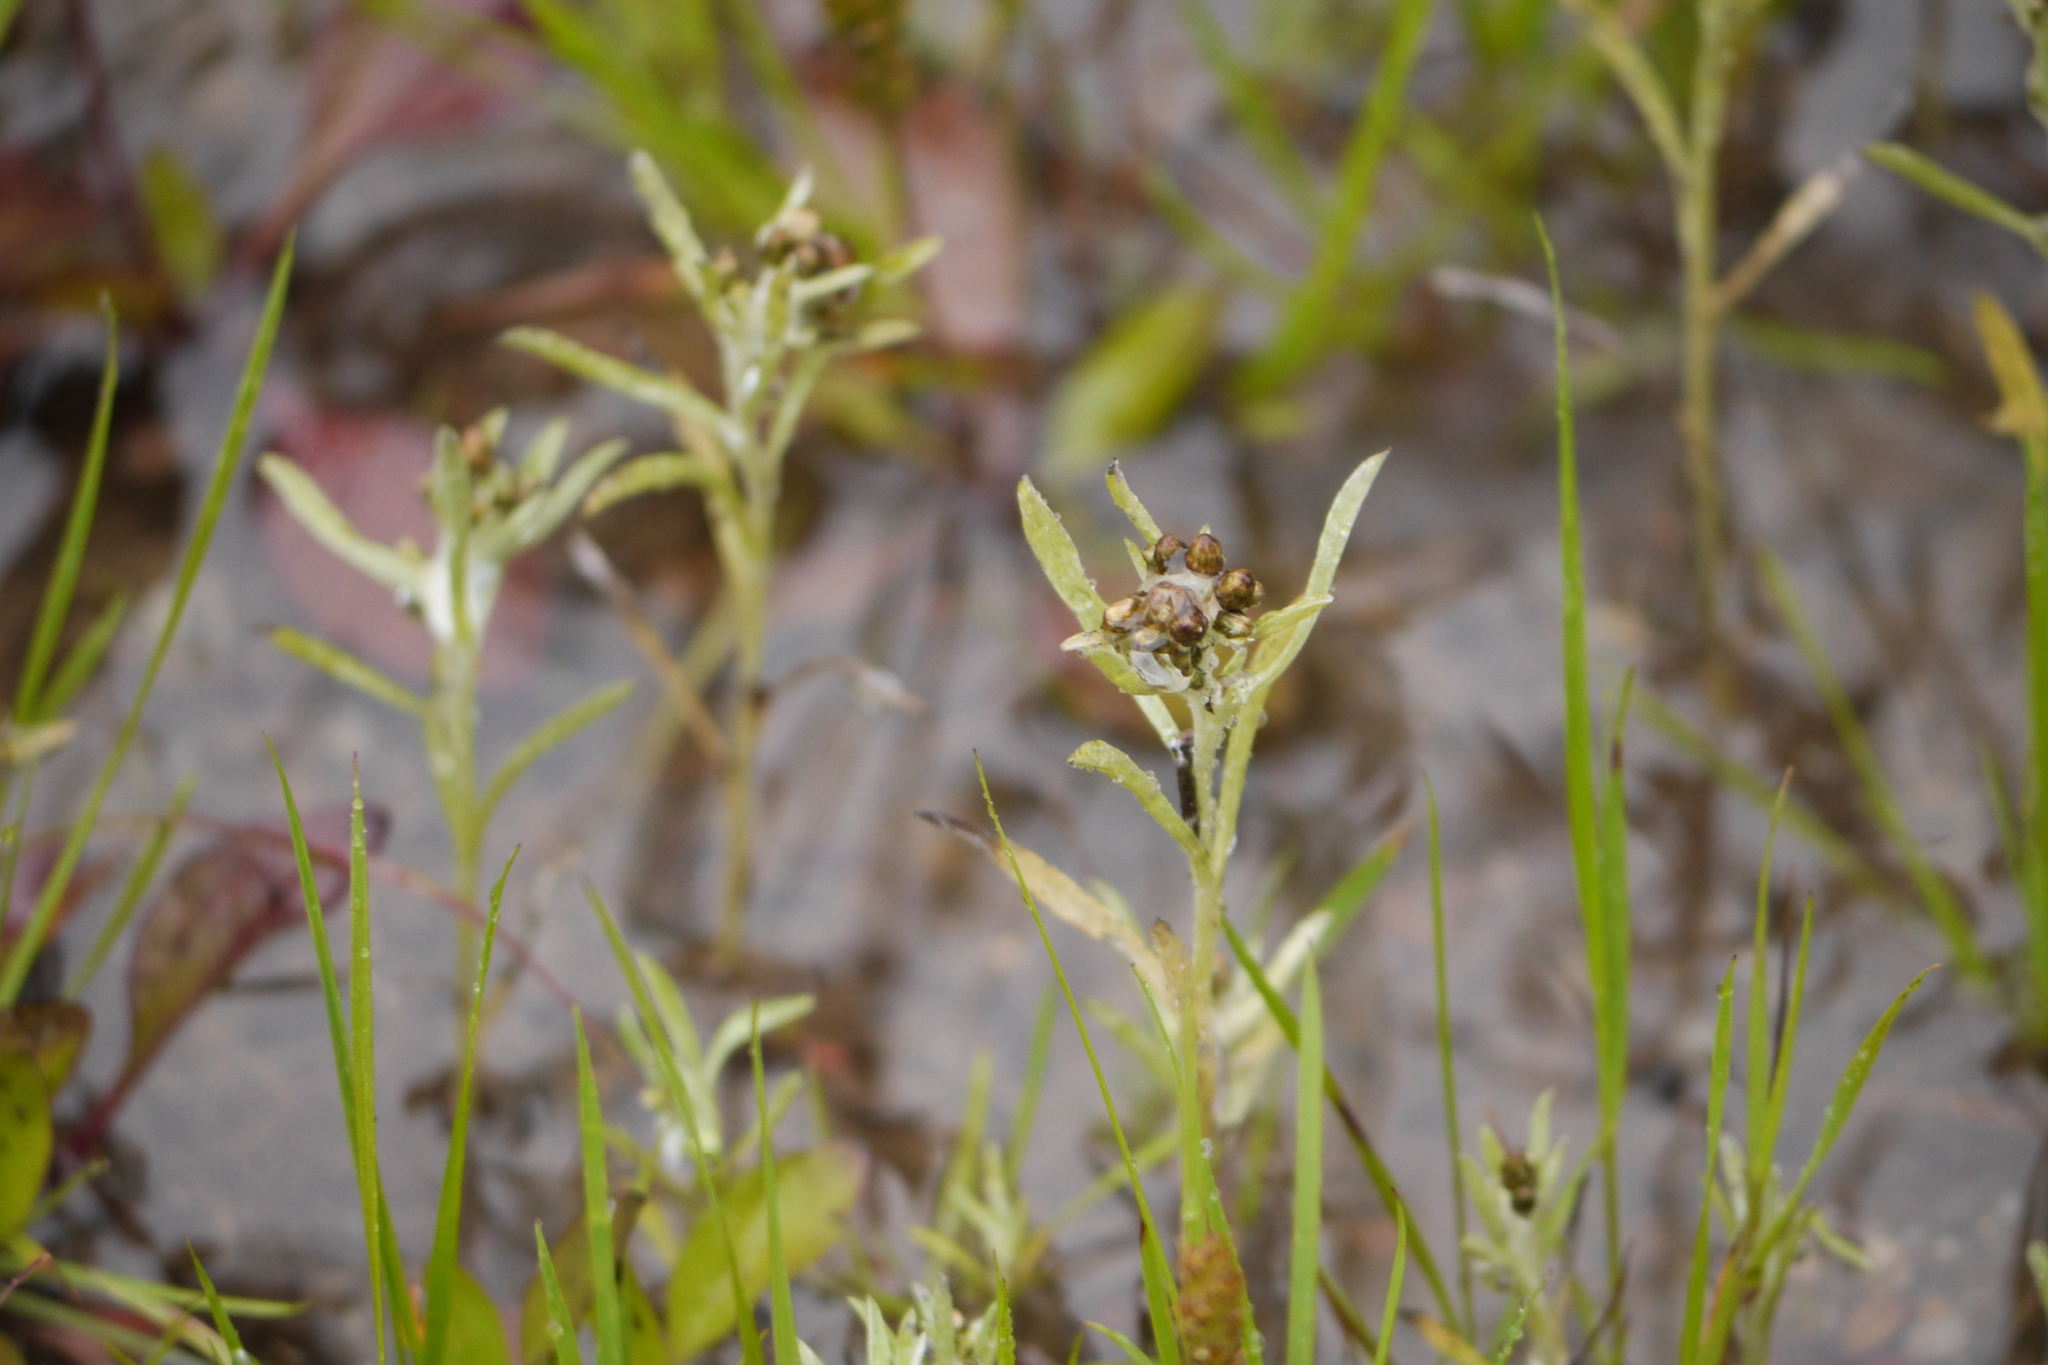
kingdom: Plantae
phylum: Tracheophyta
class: Magnoliopsida
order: Asterales
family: Asteraceae
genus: Gnaphalium
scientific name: Gnaphalium uliginosum
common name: Marsh cudweed
